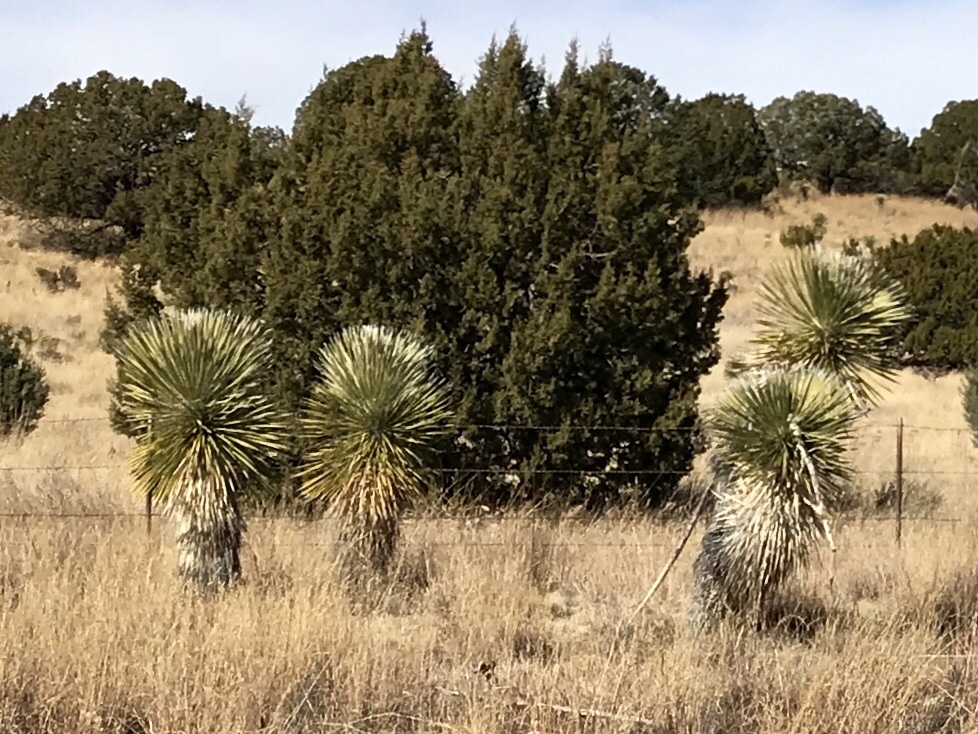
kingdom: Plantae
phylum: Tracheophyta
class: Liliopsida
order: Asparagales
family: Asparagaceae
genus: Yucca
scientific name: Yucca elata
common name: Palmella
